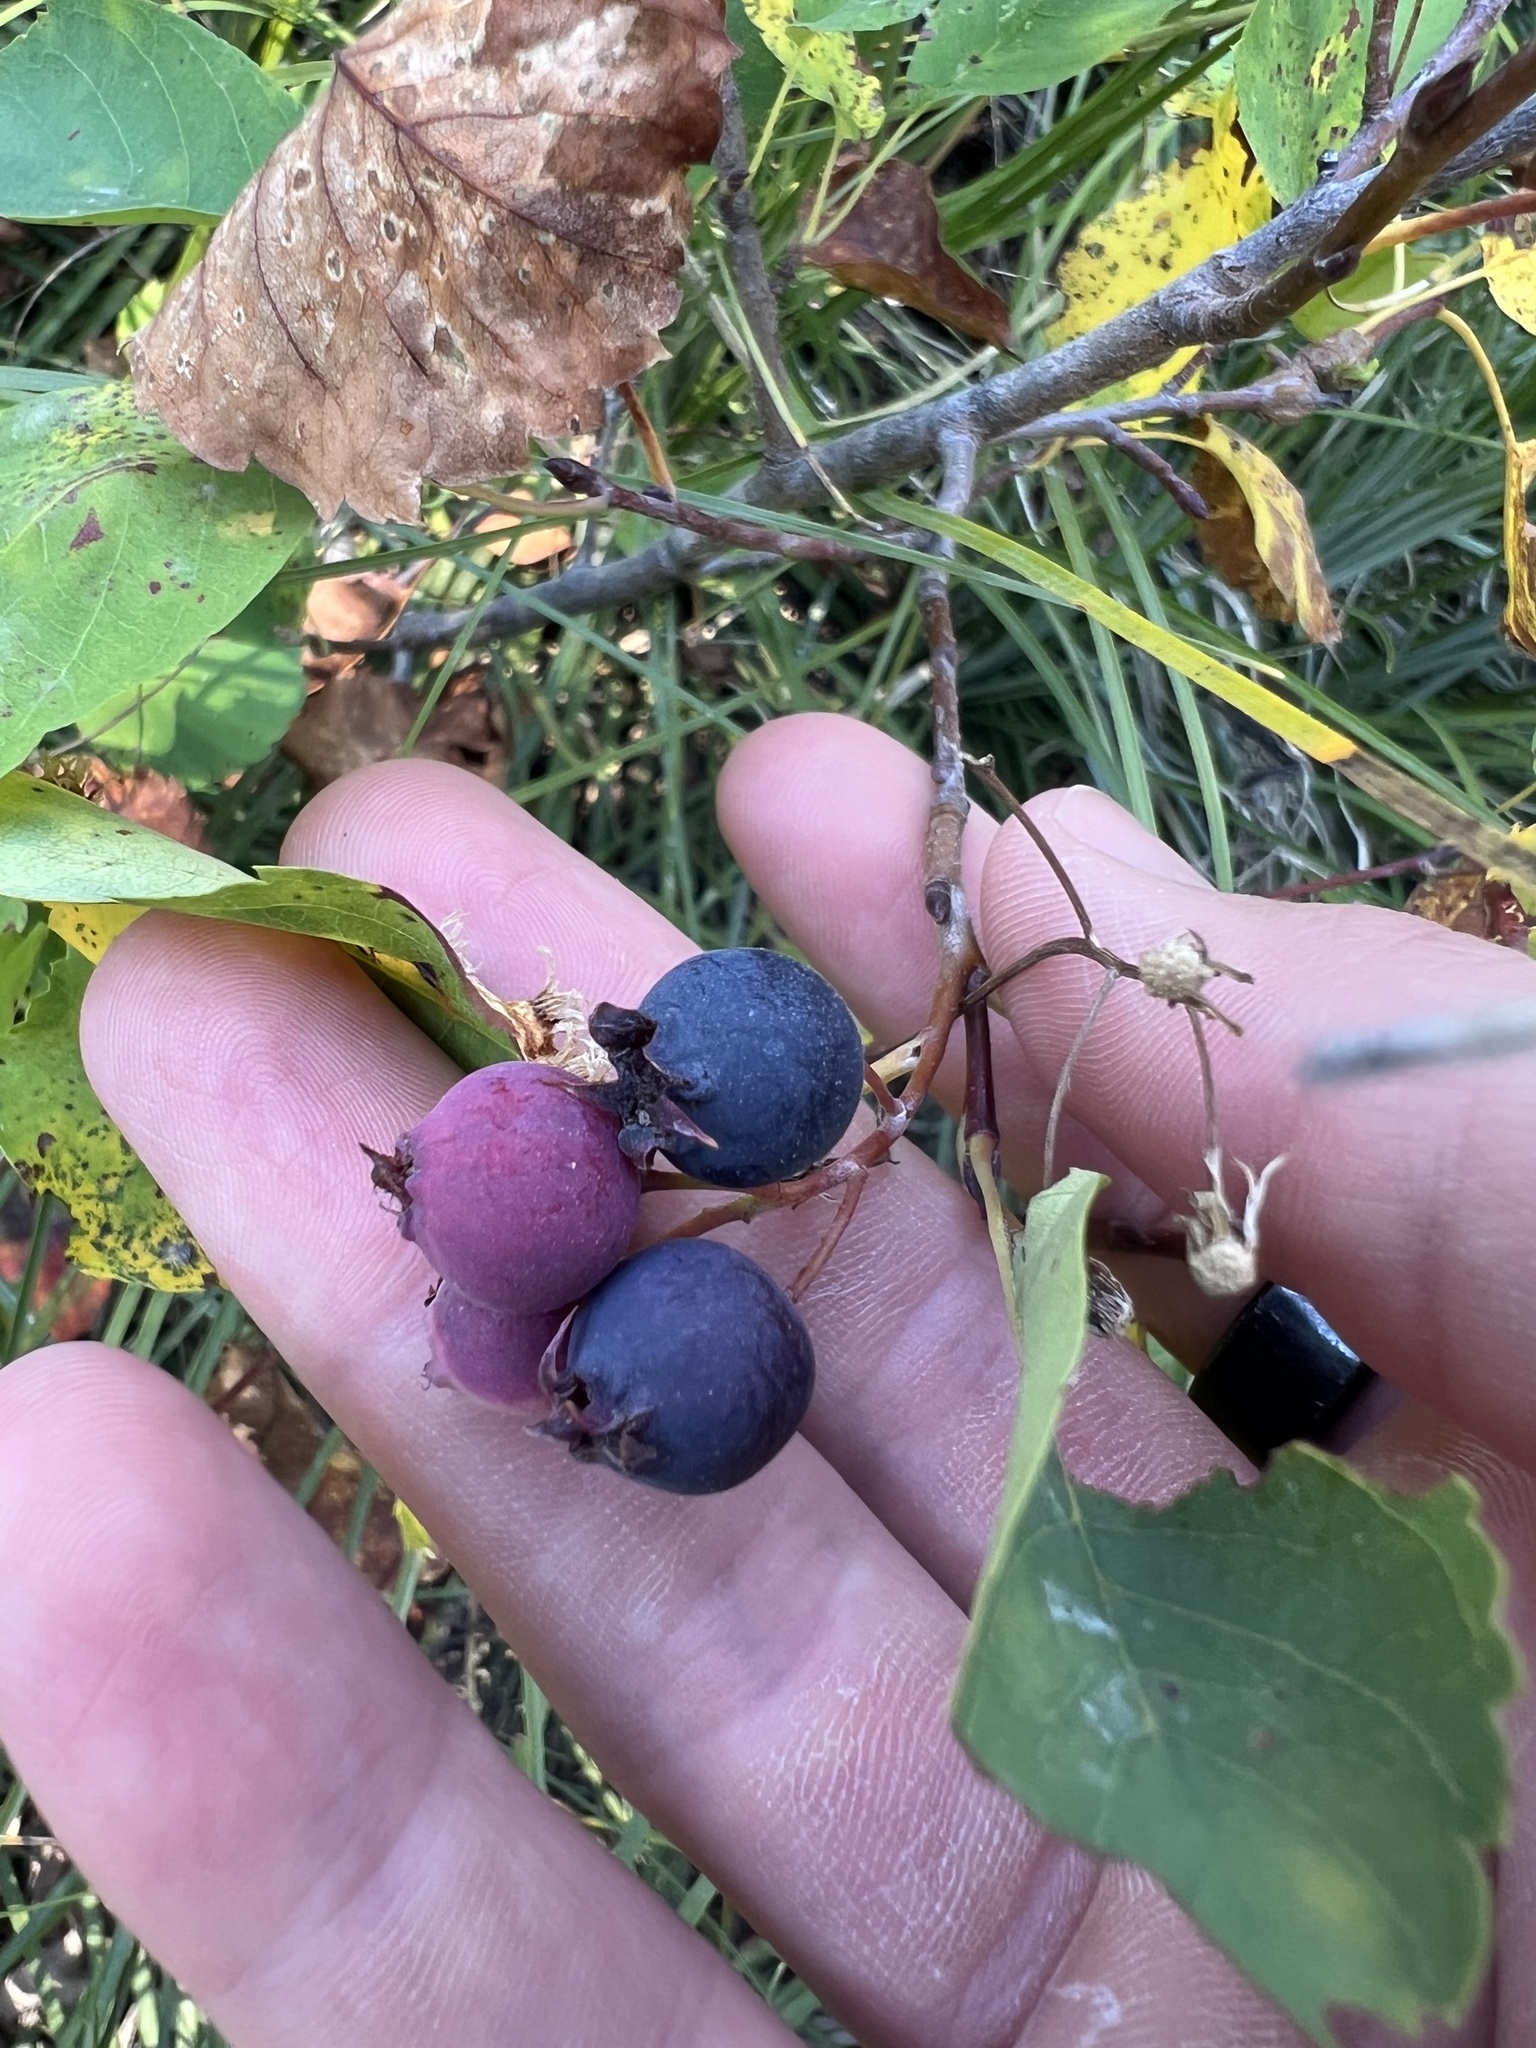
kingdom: Plantae
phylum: Tracheophyta
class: Magnoliopsida
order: Rosales
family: Rosaceae
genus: Amelanchier
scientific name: Amelanchier alnifolia
